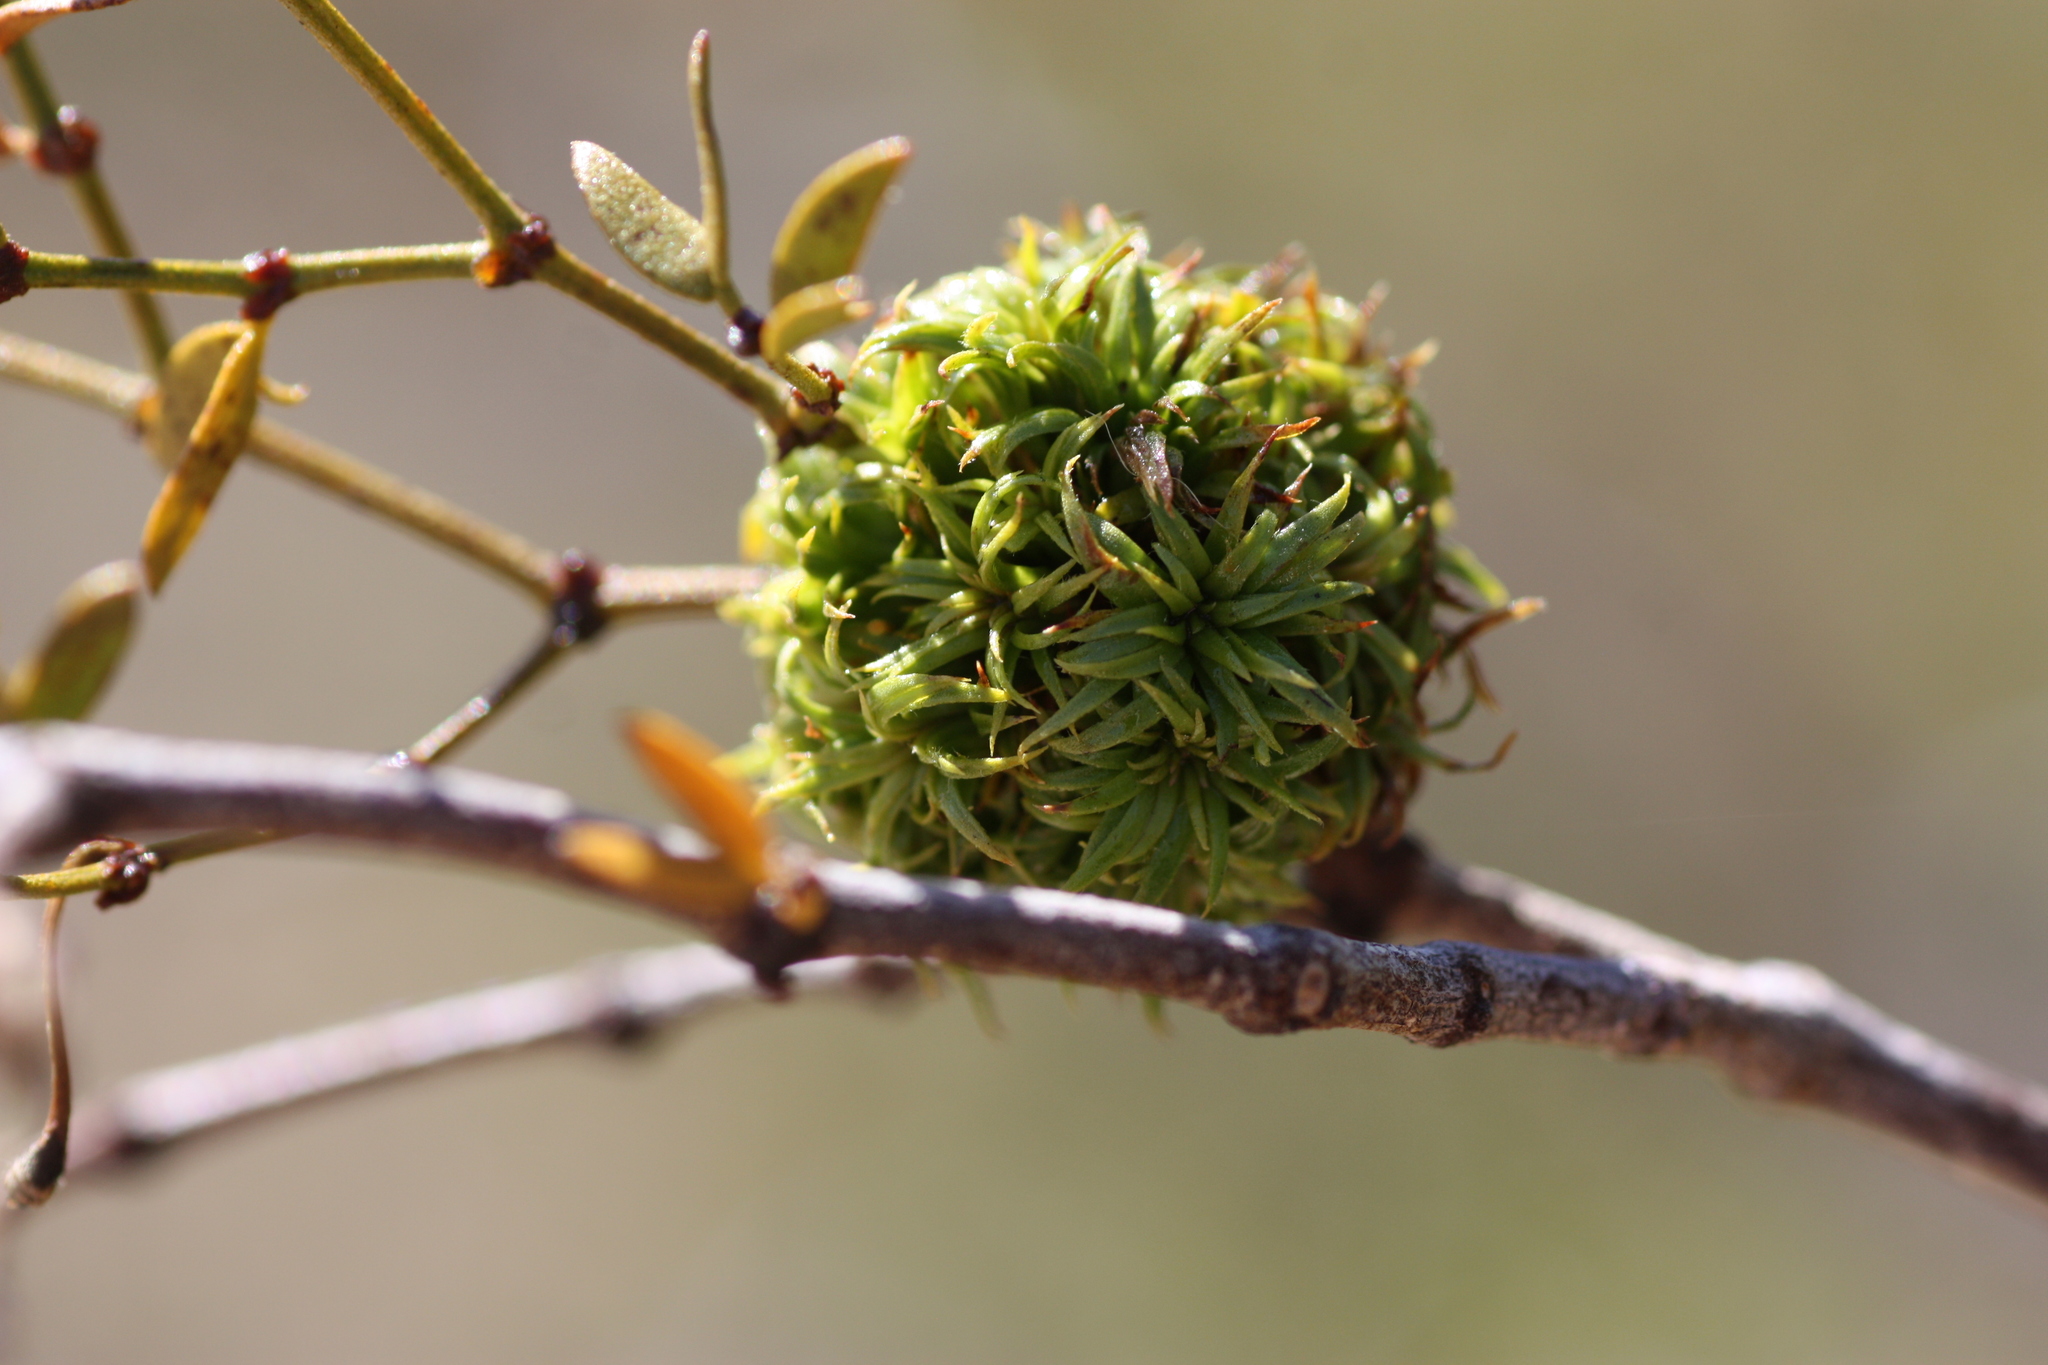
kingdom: Animalia
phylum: Arthropoda
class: Insecta
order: Diptera
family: Cecidomyiidae
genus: Asphondylia
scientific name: Asphondylia auripila
